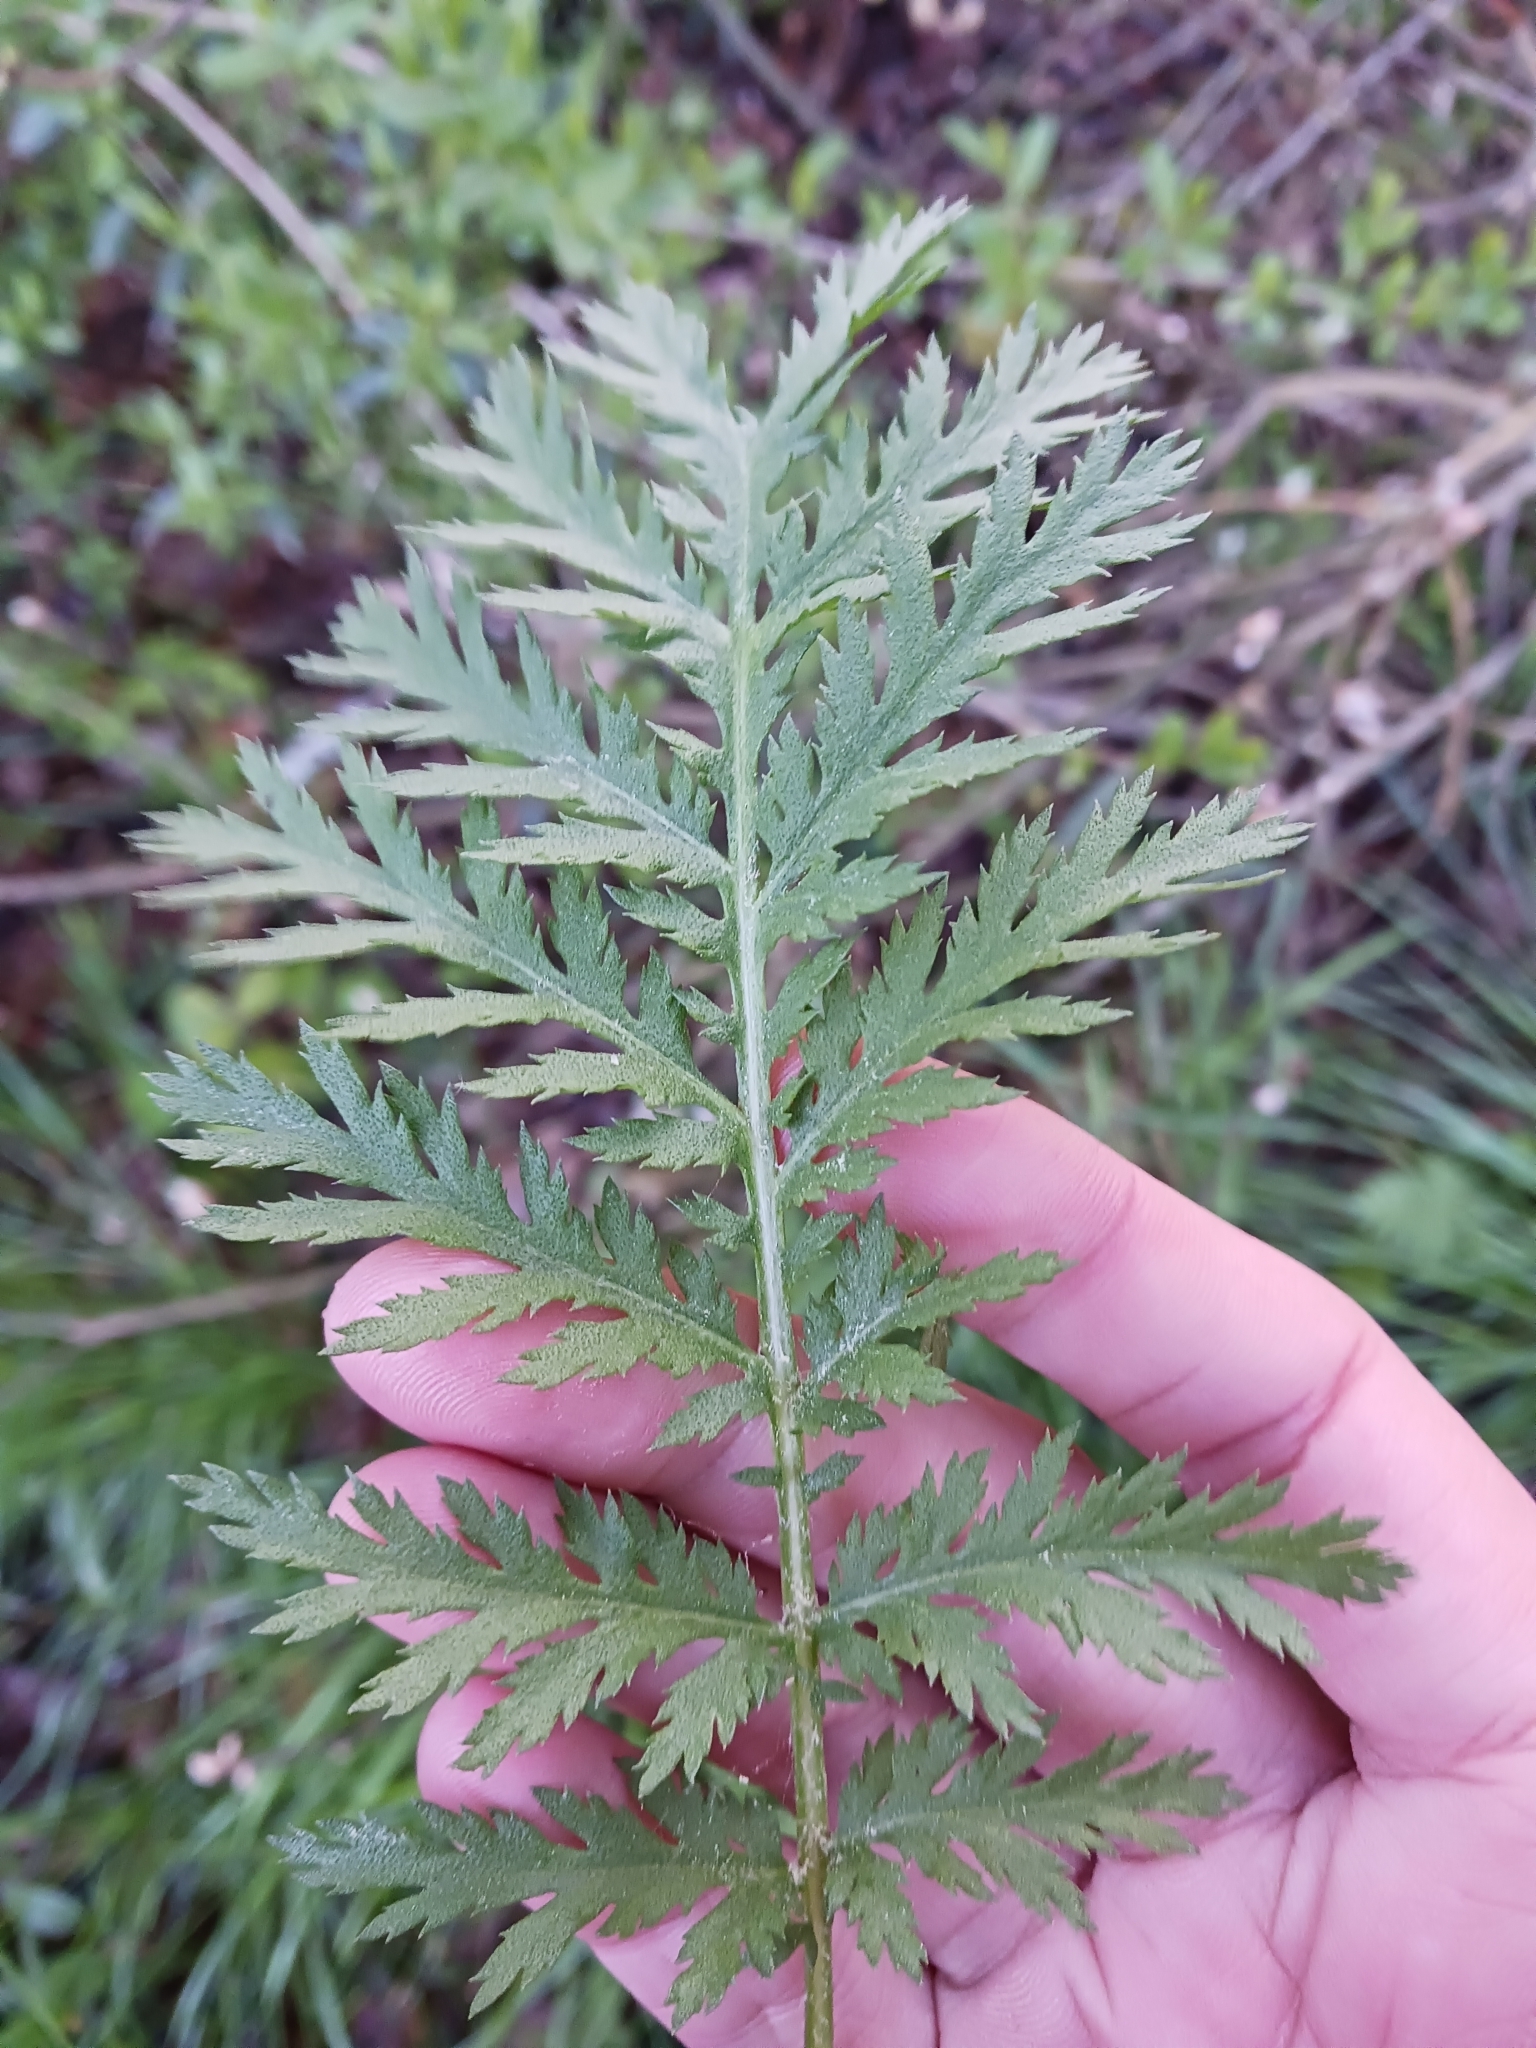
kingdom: Plantae
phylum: Tracheophyta
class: Magnoliopsida
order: Asterales
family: Asteraceae
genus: Tanacetum
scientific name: Tanacetum vulgare
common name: Common tansy
